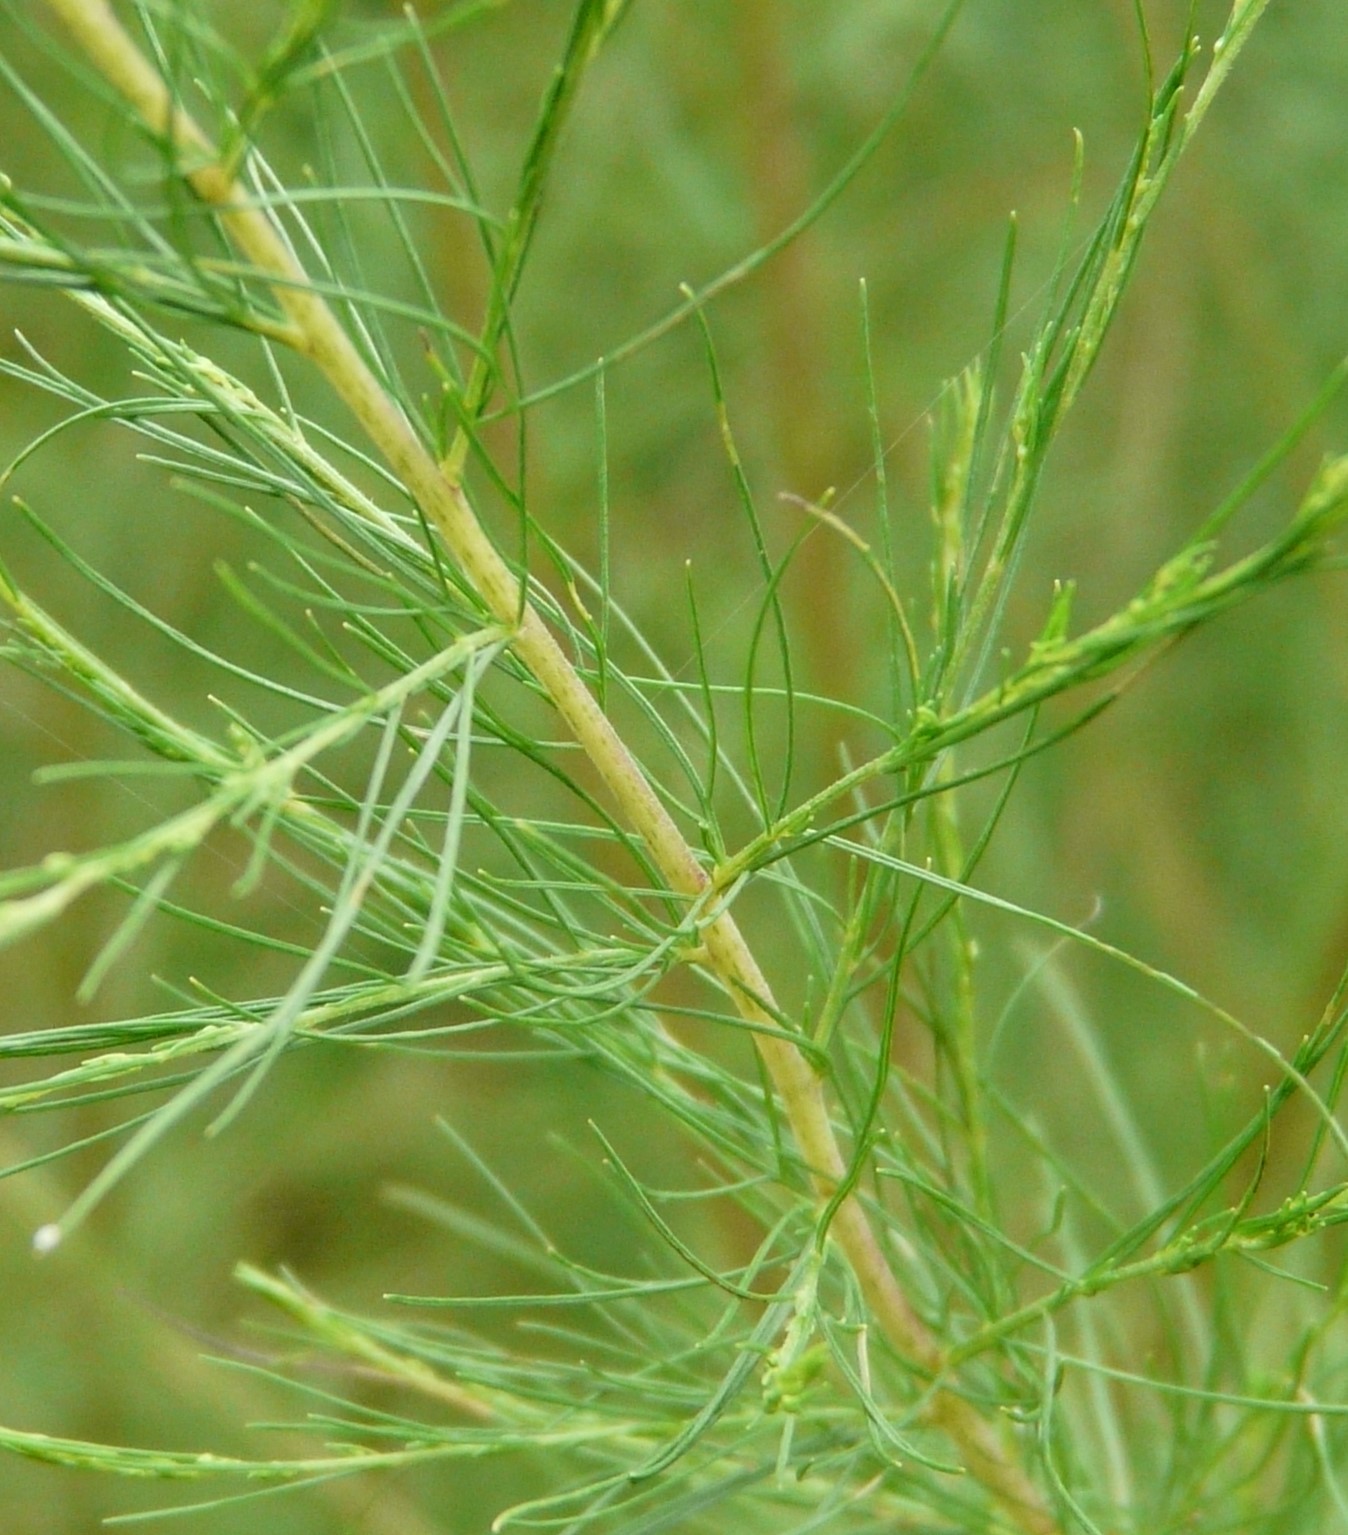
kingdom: Plantae
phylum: Tracheophyta
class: Magnoliopsida
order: Asterales
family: Asteraceae
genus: Eupatorium
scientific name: Eupatorium capillifolium
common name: Dog-fennel
